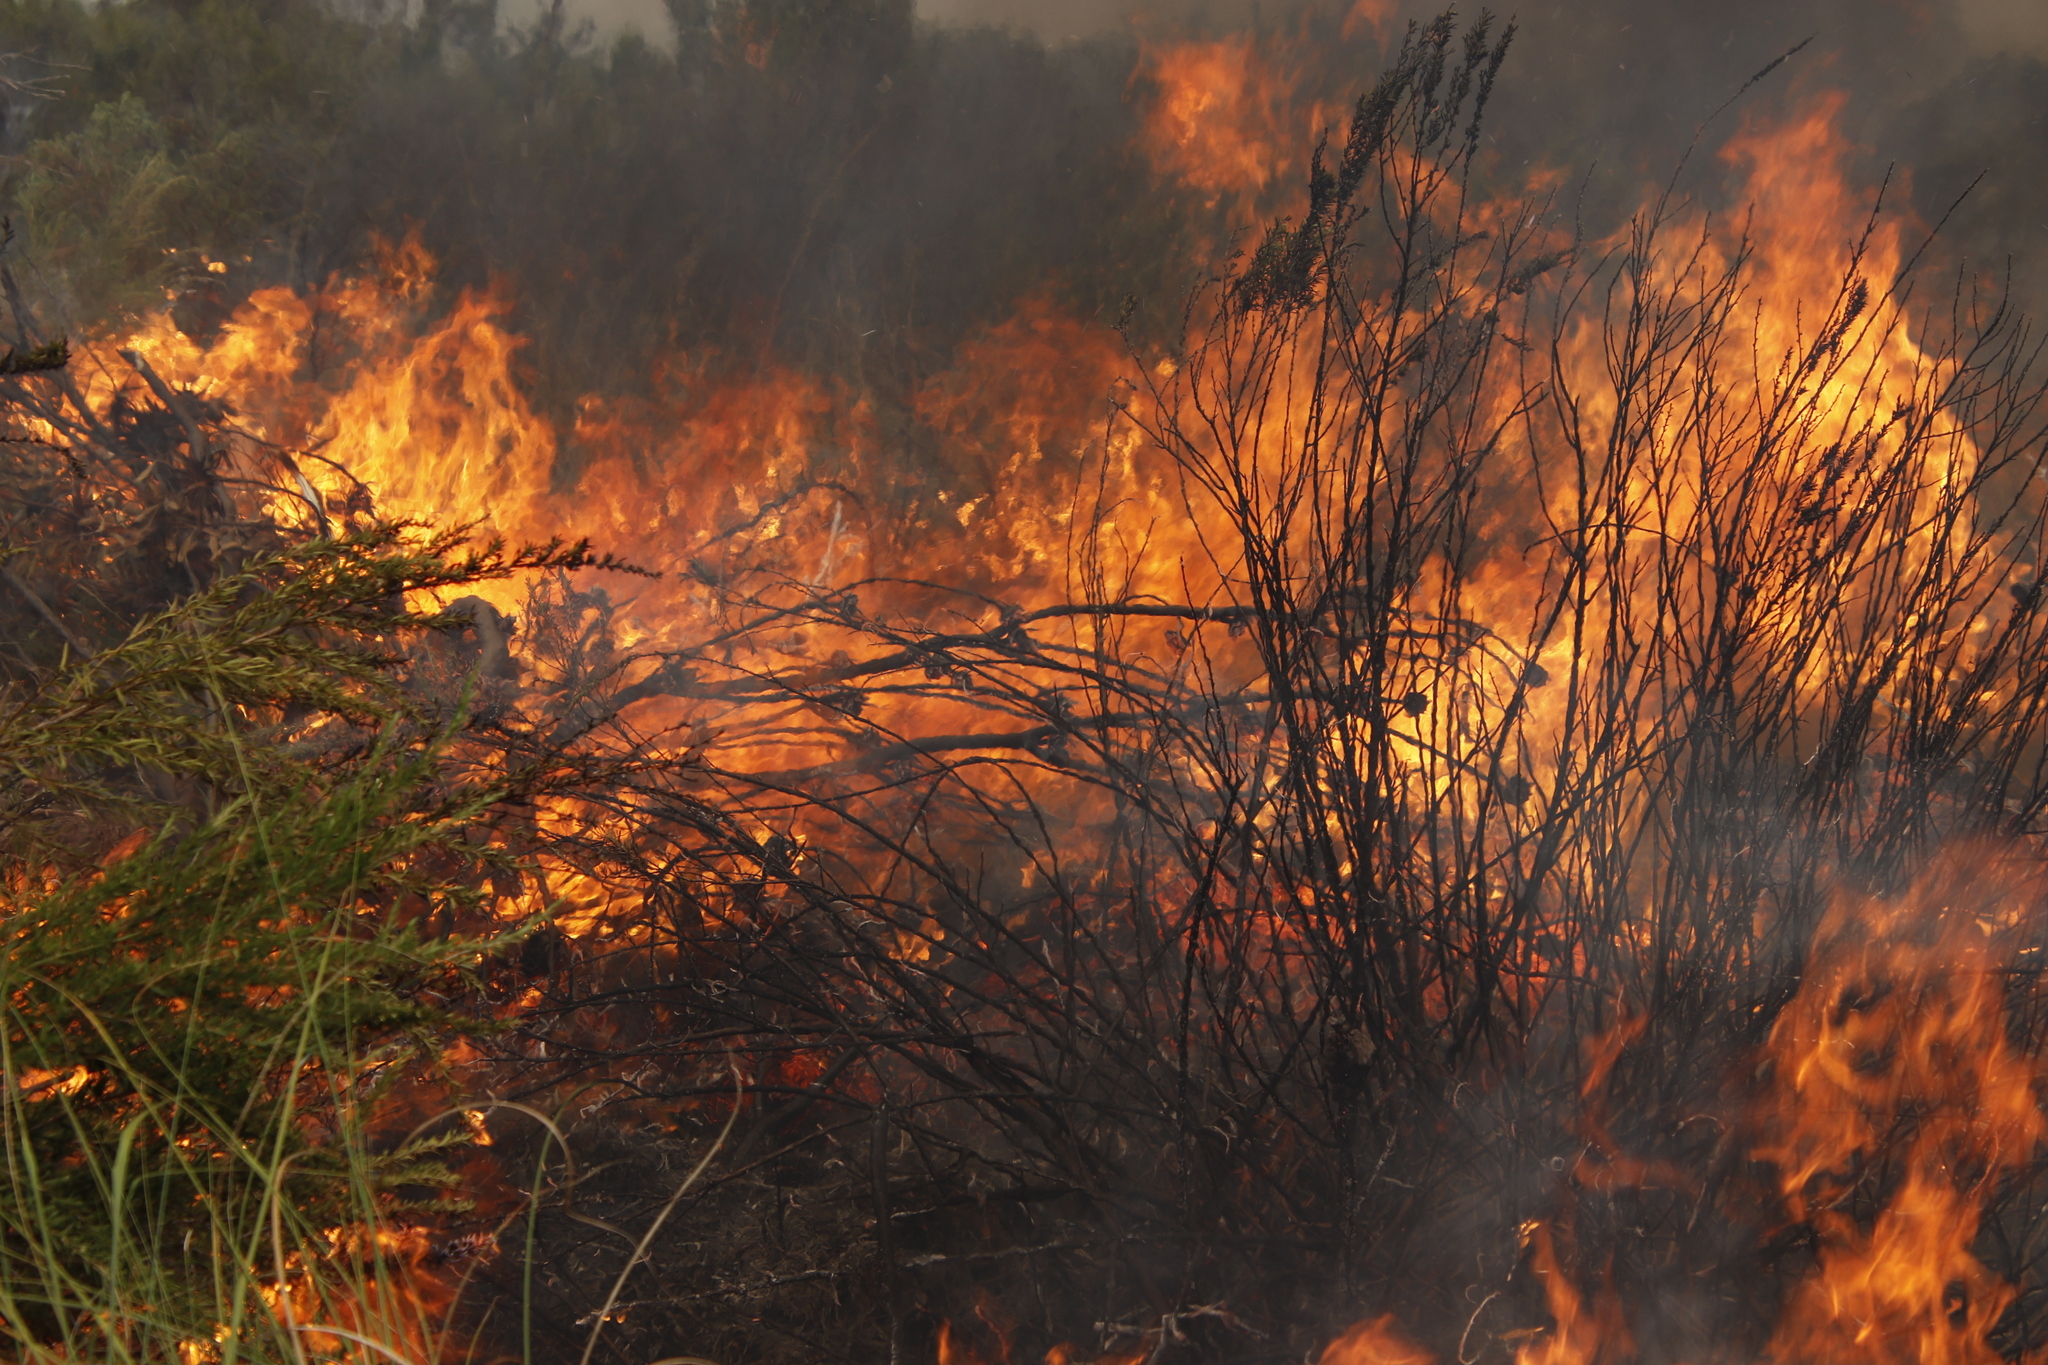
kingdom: Plantae
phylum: Tracheophyta
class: Magnoliopsida
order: Proteales
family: Proteaceae
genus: Protea
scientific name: Protea repens
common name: Sugarbush
